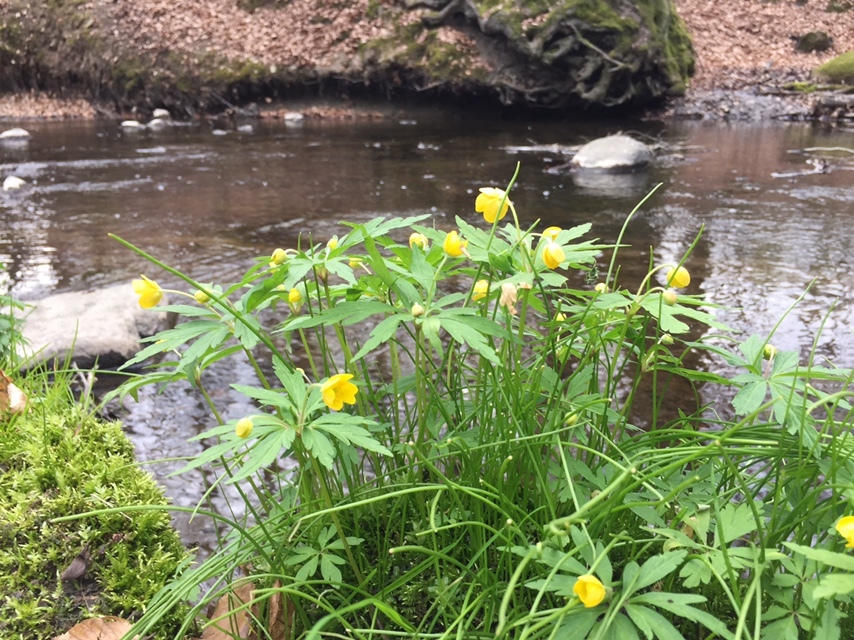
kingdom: Plantae
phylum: Tracheophyta
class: Magnoliopsida
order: Ranunculales
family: Ranunculaceae
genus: Anemone
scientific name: Anemone ranunculoides
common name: Yellow anemone
